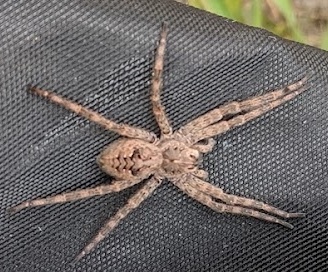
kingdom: Animalia
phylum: Arthropoda
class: Arachnida
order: Araneae
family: Pisauridae
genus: Dolomedes
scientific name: Dolomedes tenebrosus
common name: Dark fishing spider
